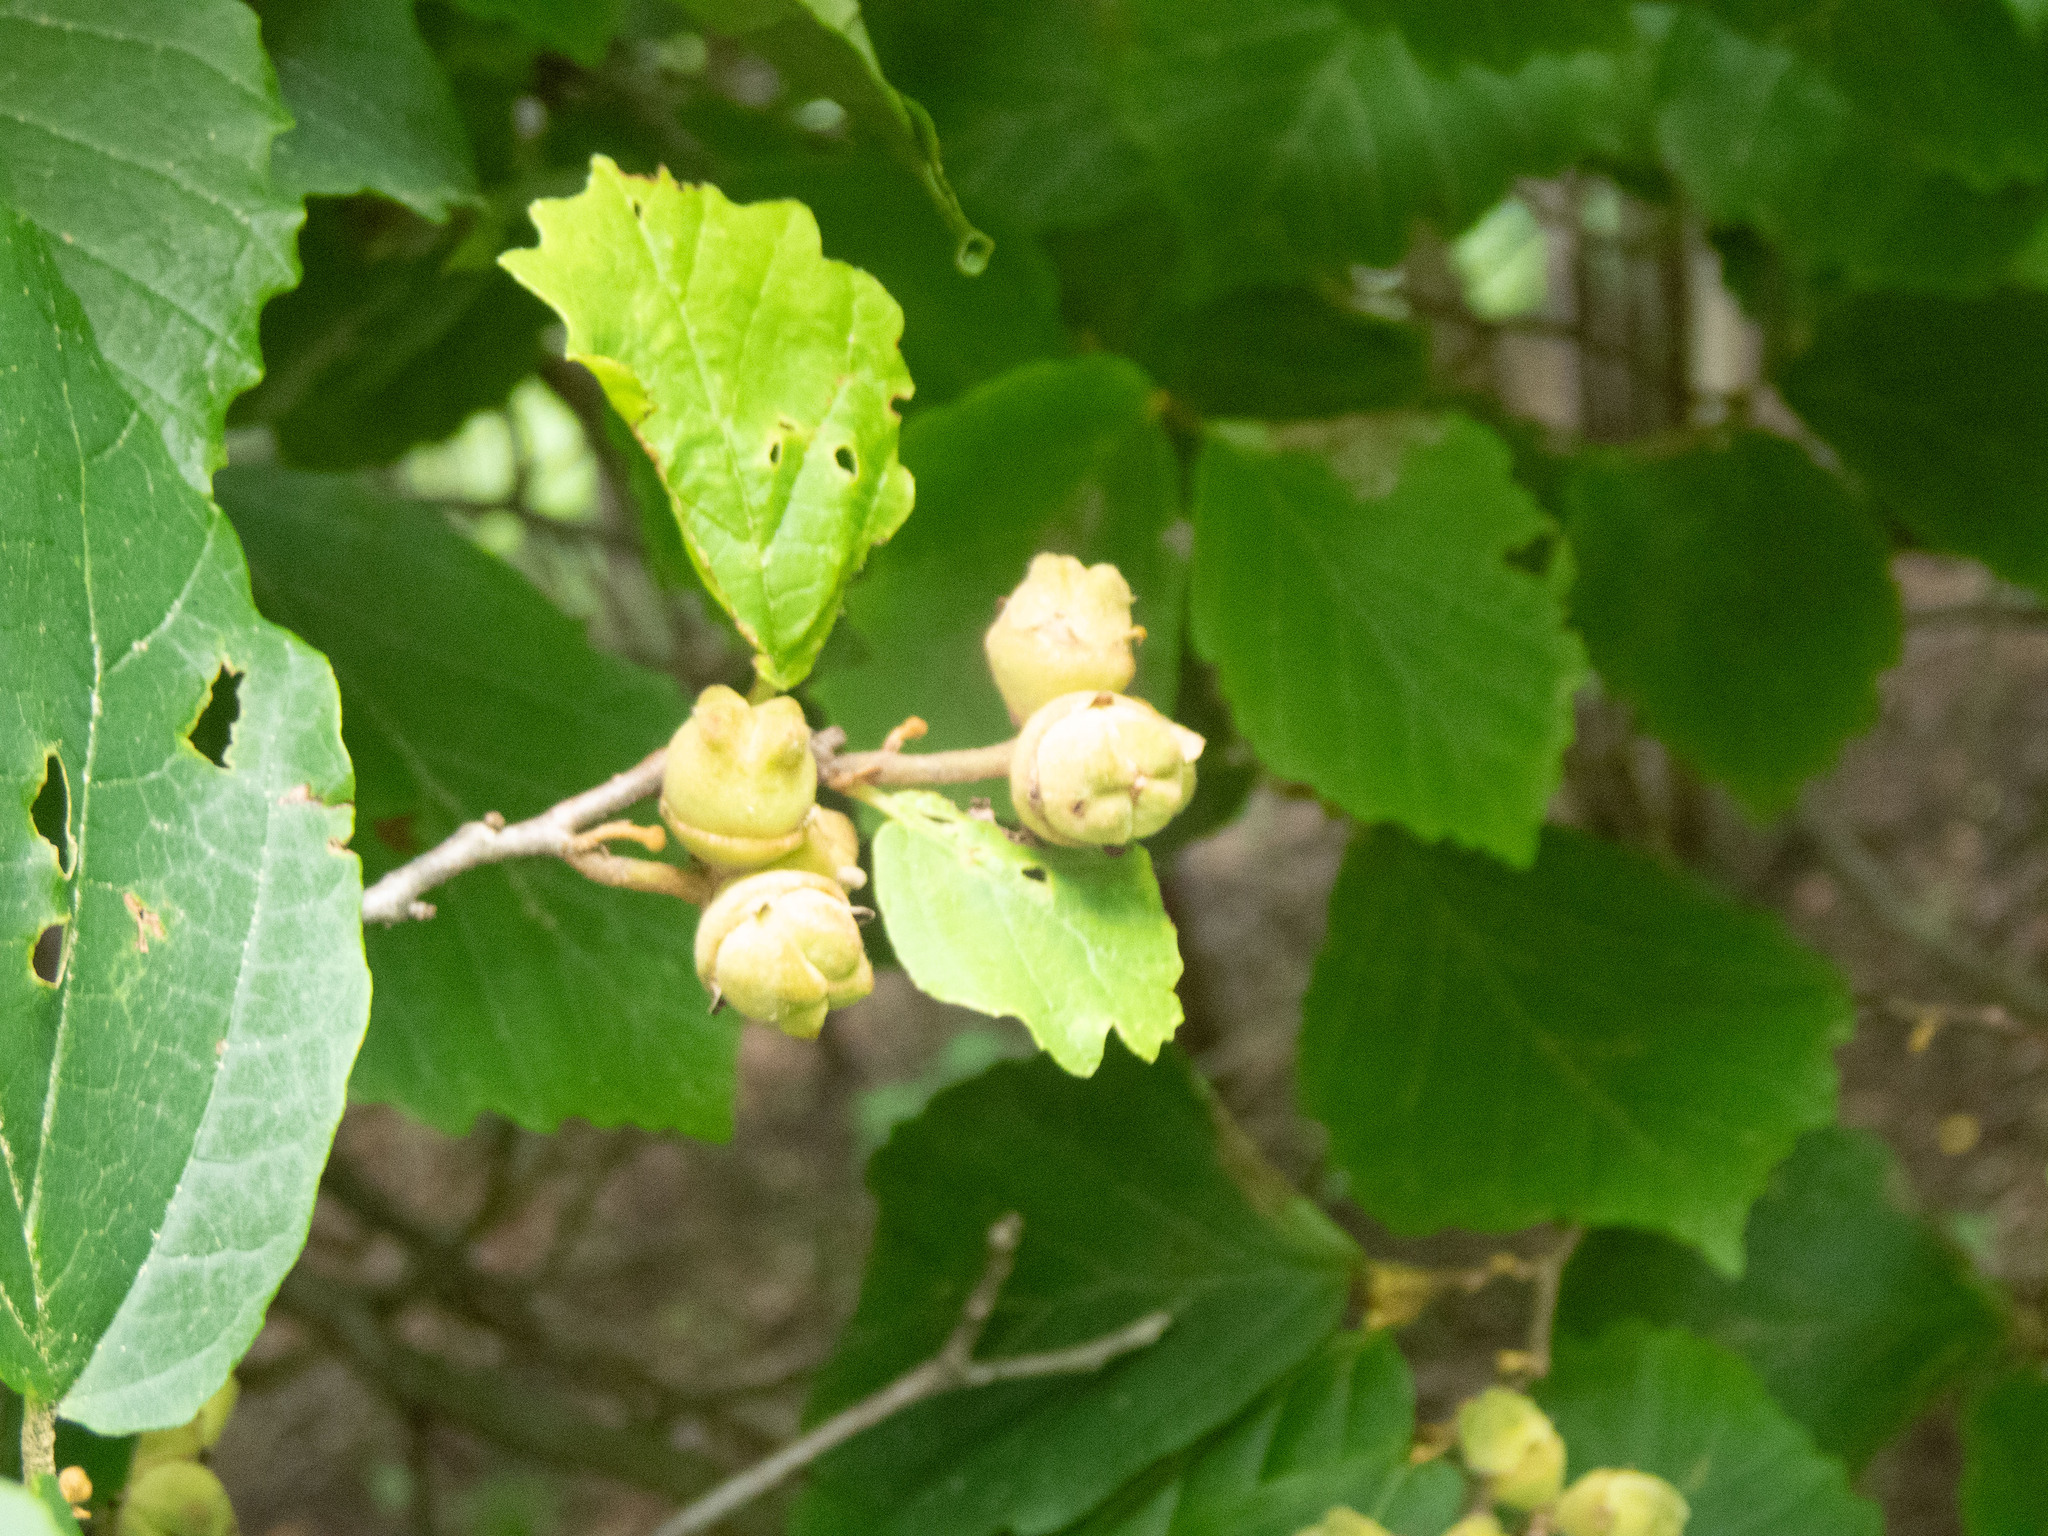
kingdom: Plantae
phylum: Tracheophyta
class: Magnoliopsida
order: Saxifragales
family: Hamamelidaceae
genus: Hamamelis
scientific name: Hamamelis virginiana
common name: Witch-hazel
